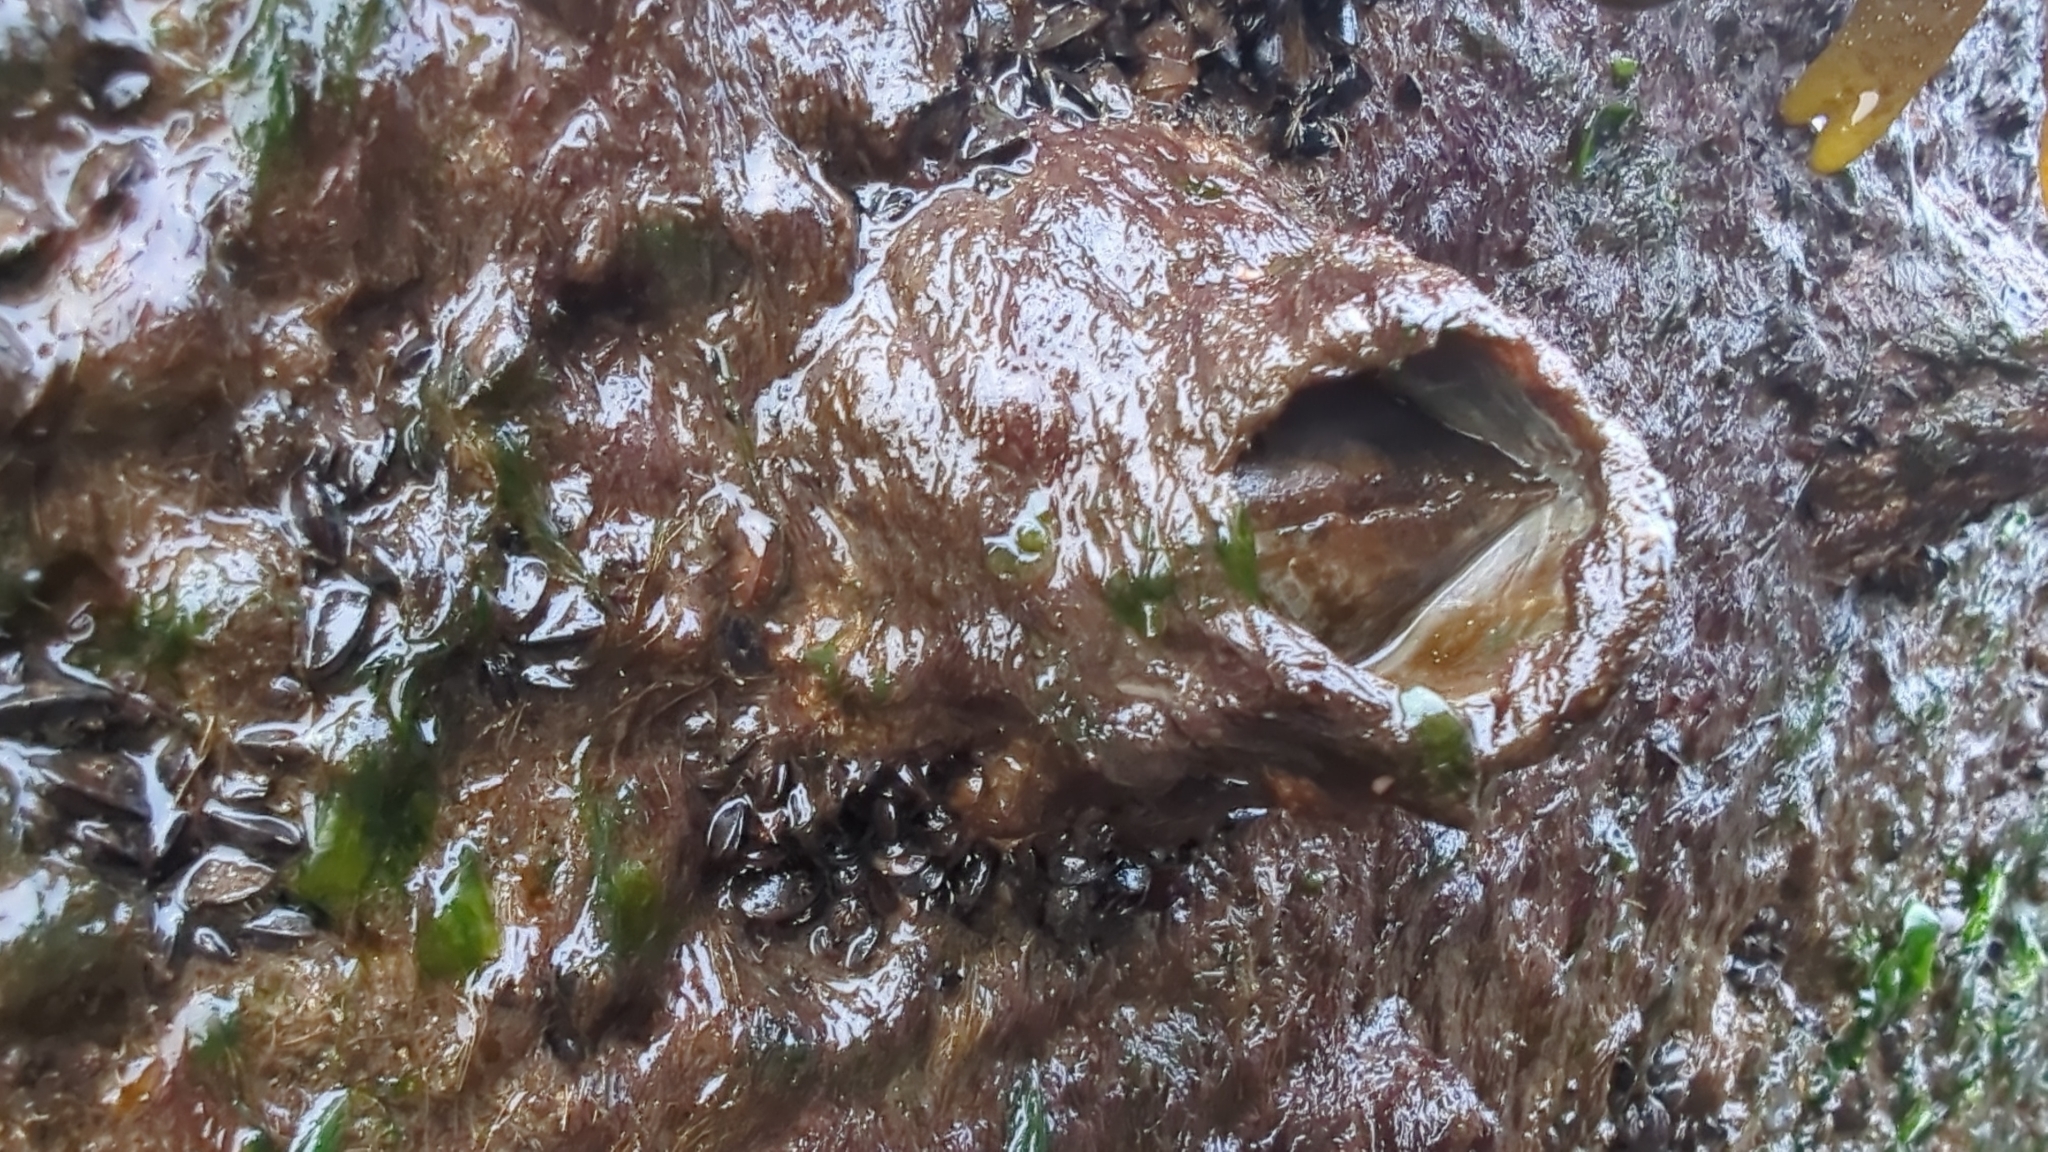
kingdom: Animalia
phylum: Arthropoda
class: Maxillopoda
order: Sessilia
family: Archaeobalanidae
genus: Semibalanus
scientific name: Semibalanus cariosus
